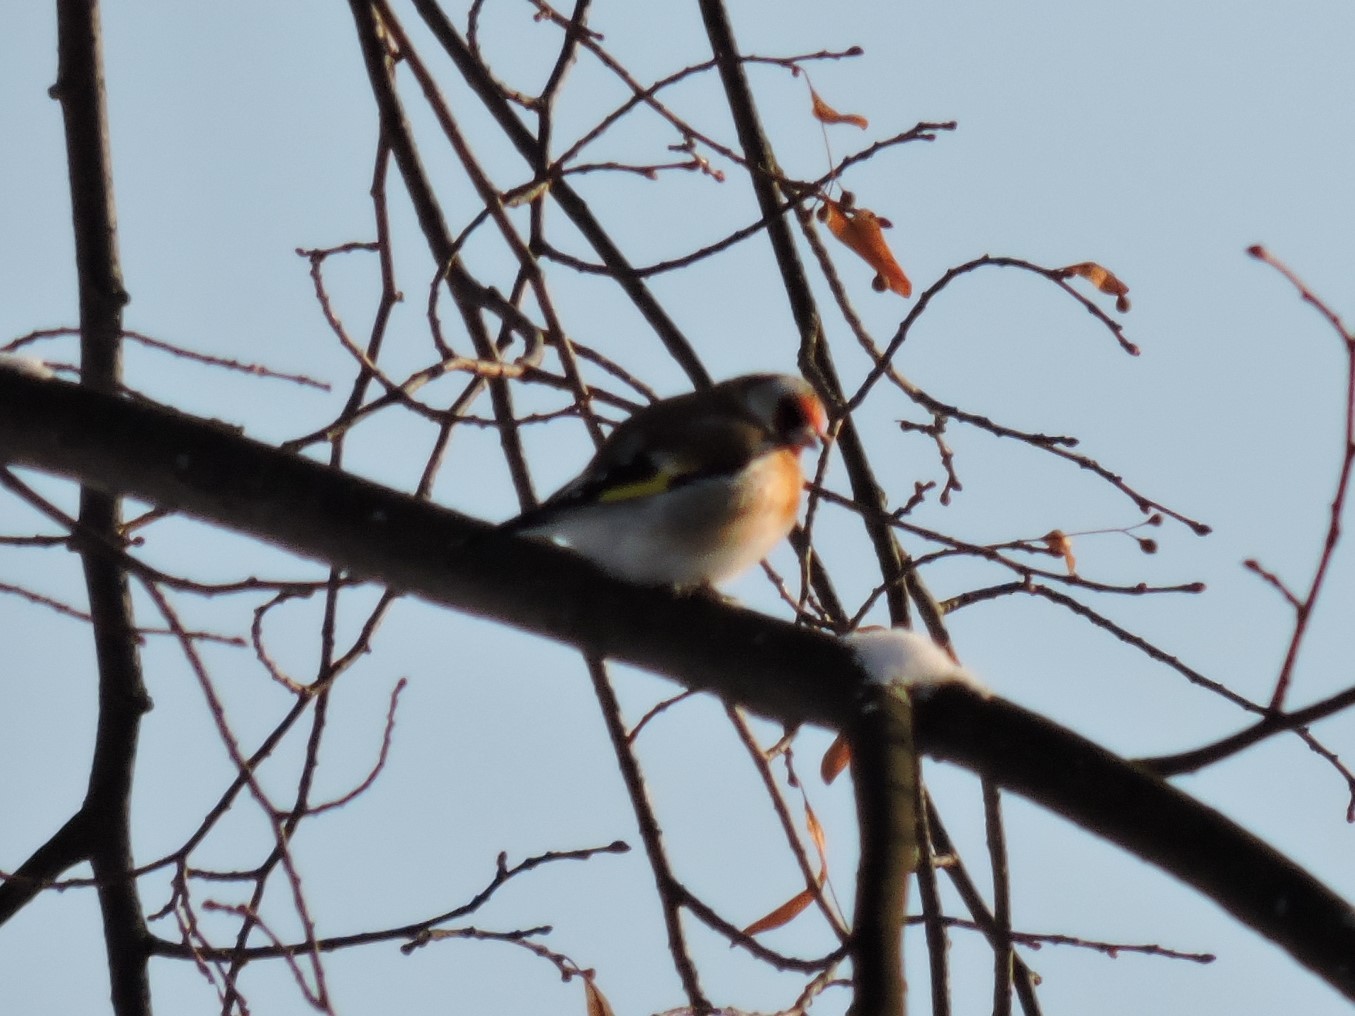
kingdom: Animalia
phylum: Chordata
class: Aves
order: Passeriformes
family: Fringillidae
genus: Carduelis
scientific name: Carduelis carduelis
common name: European goldfinch
